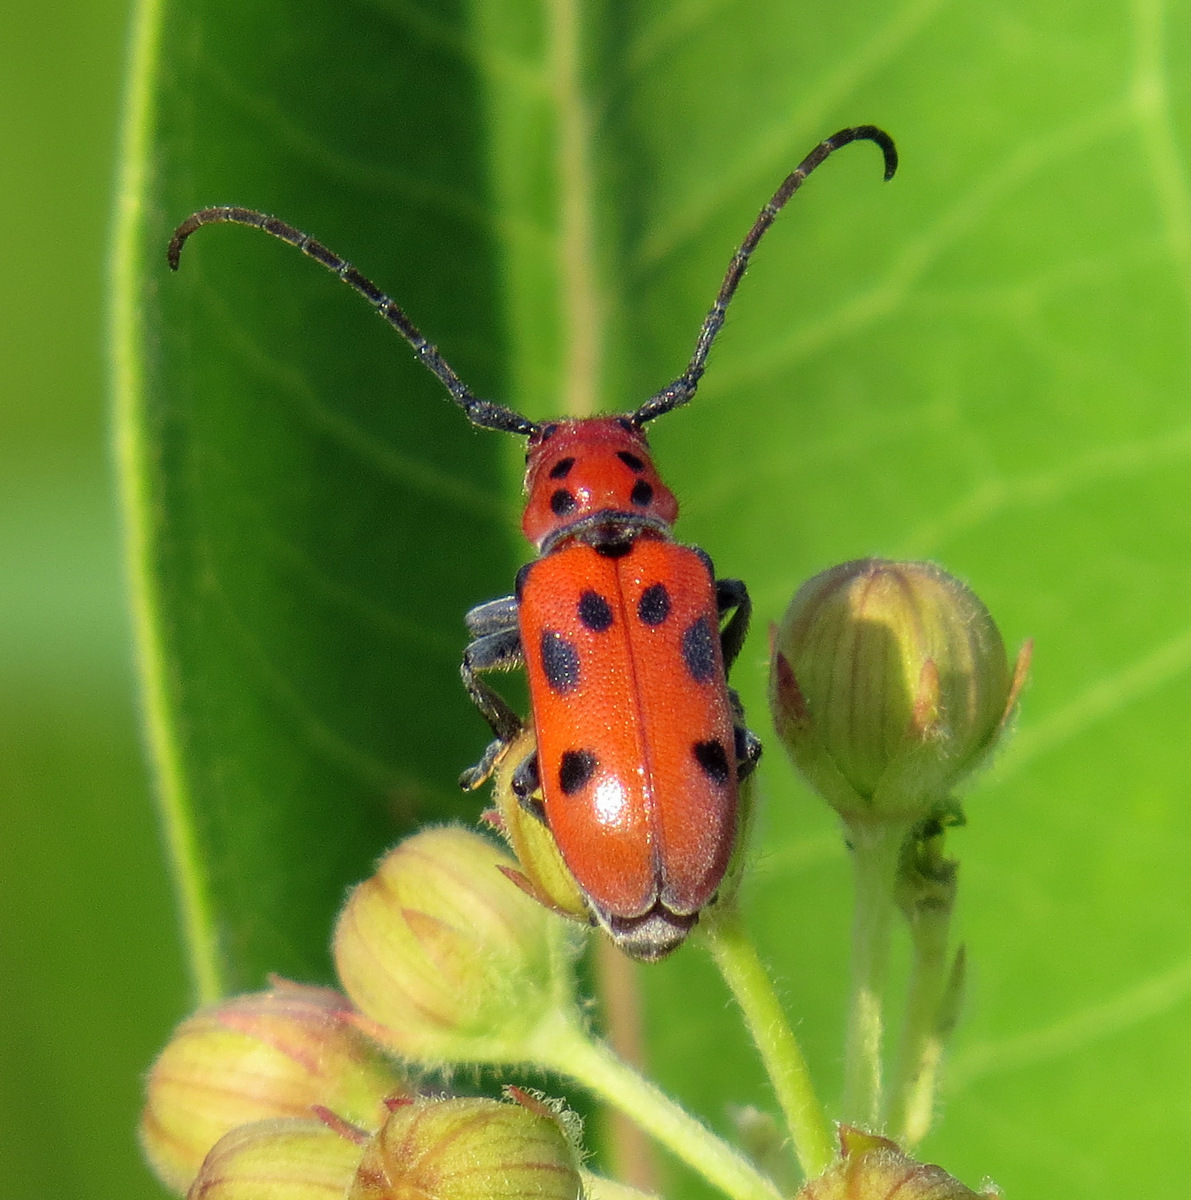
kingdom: Animalia
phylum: Arthropoda
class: Insecta
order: Coleoptera
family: Cerambycidae
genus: Tetraopes
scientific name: Tetraopes tetrophthalmus
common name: Red milkweed beetle
